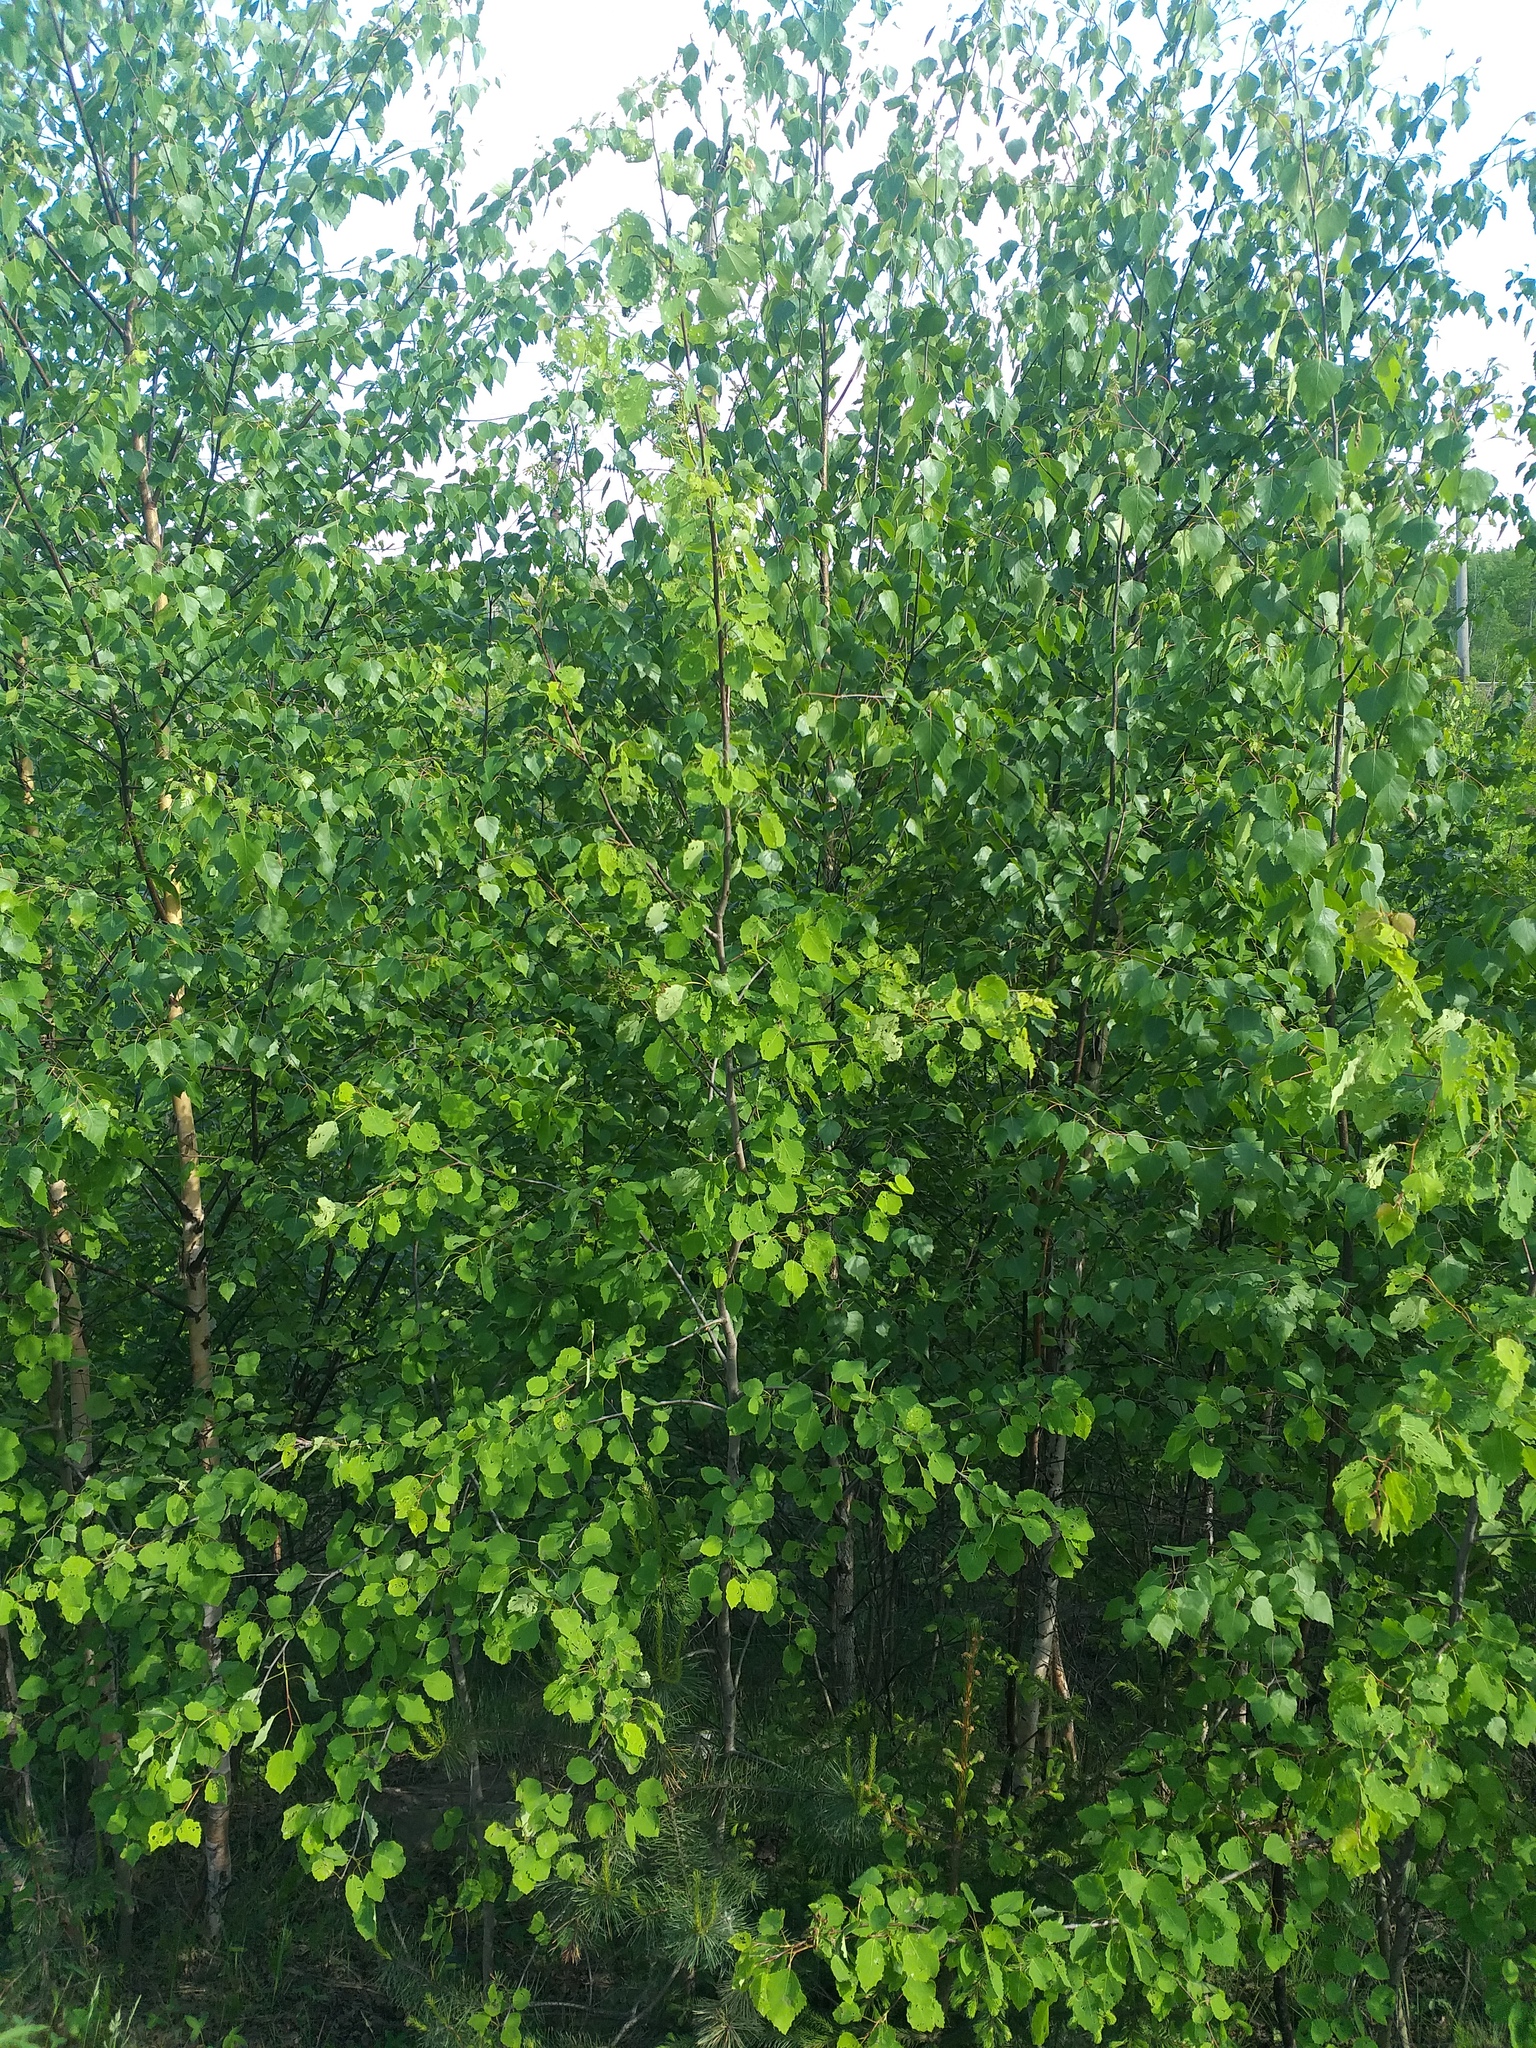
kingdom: Plantae
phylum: Tracheophyta
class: Magnoliopsida
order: Malpighiales
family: Salicaceae
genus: Populus
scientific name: Populus tremula
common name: European aspen
